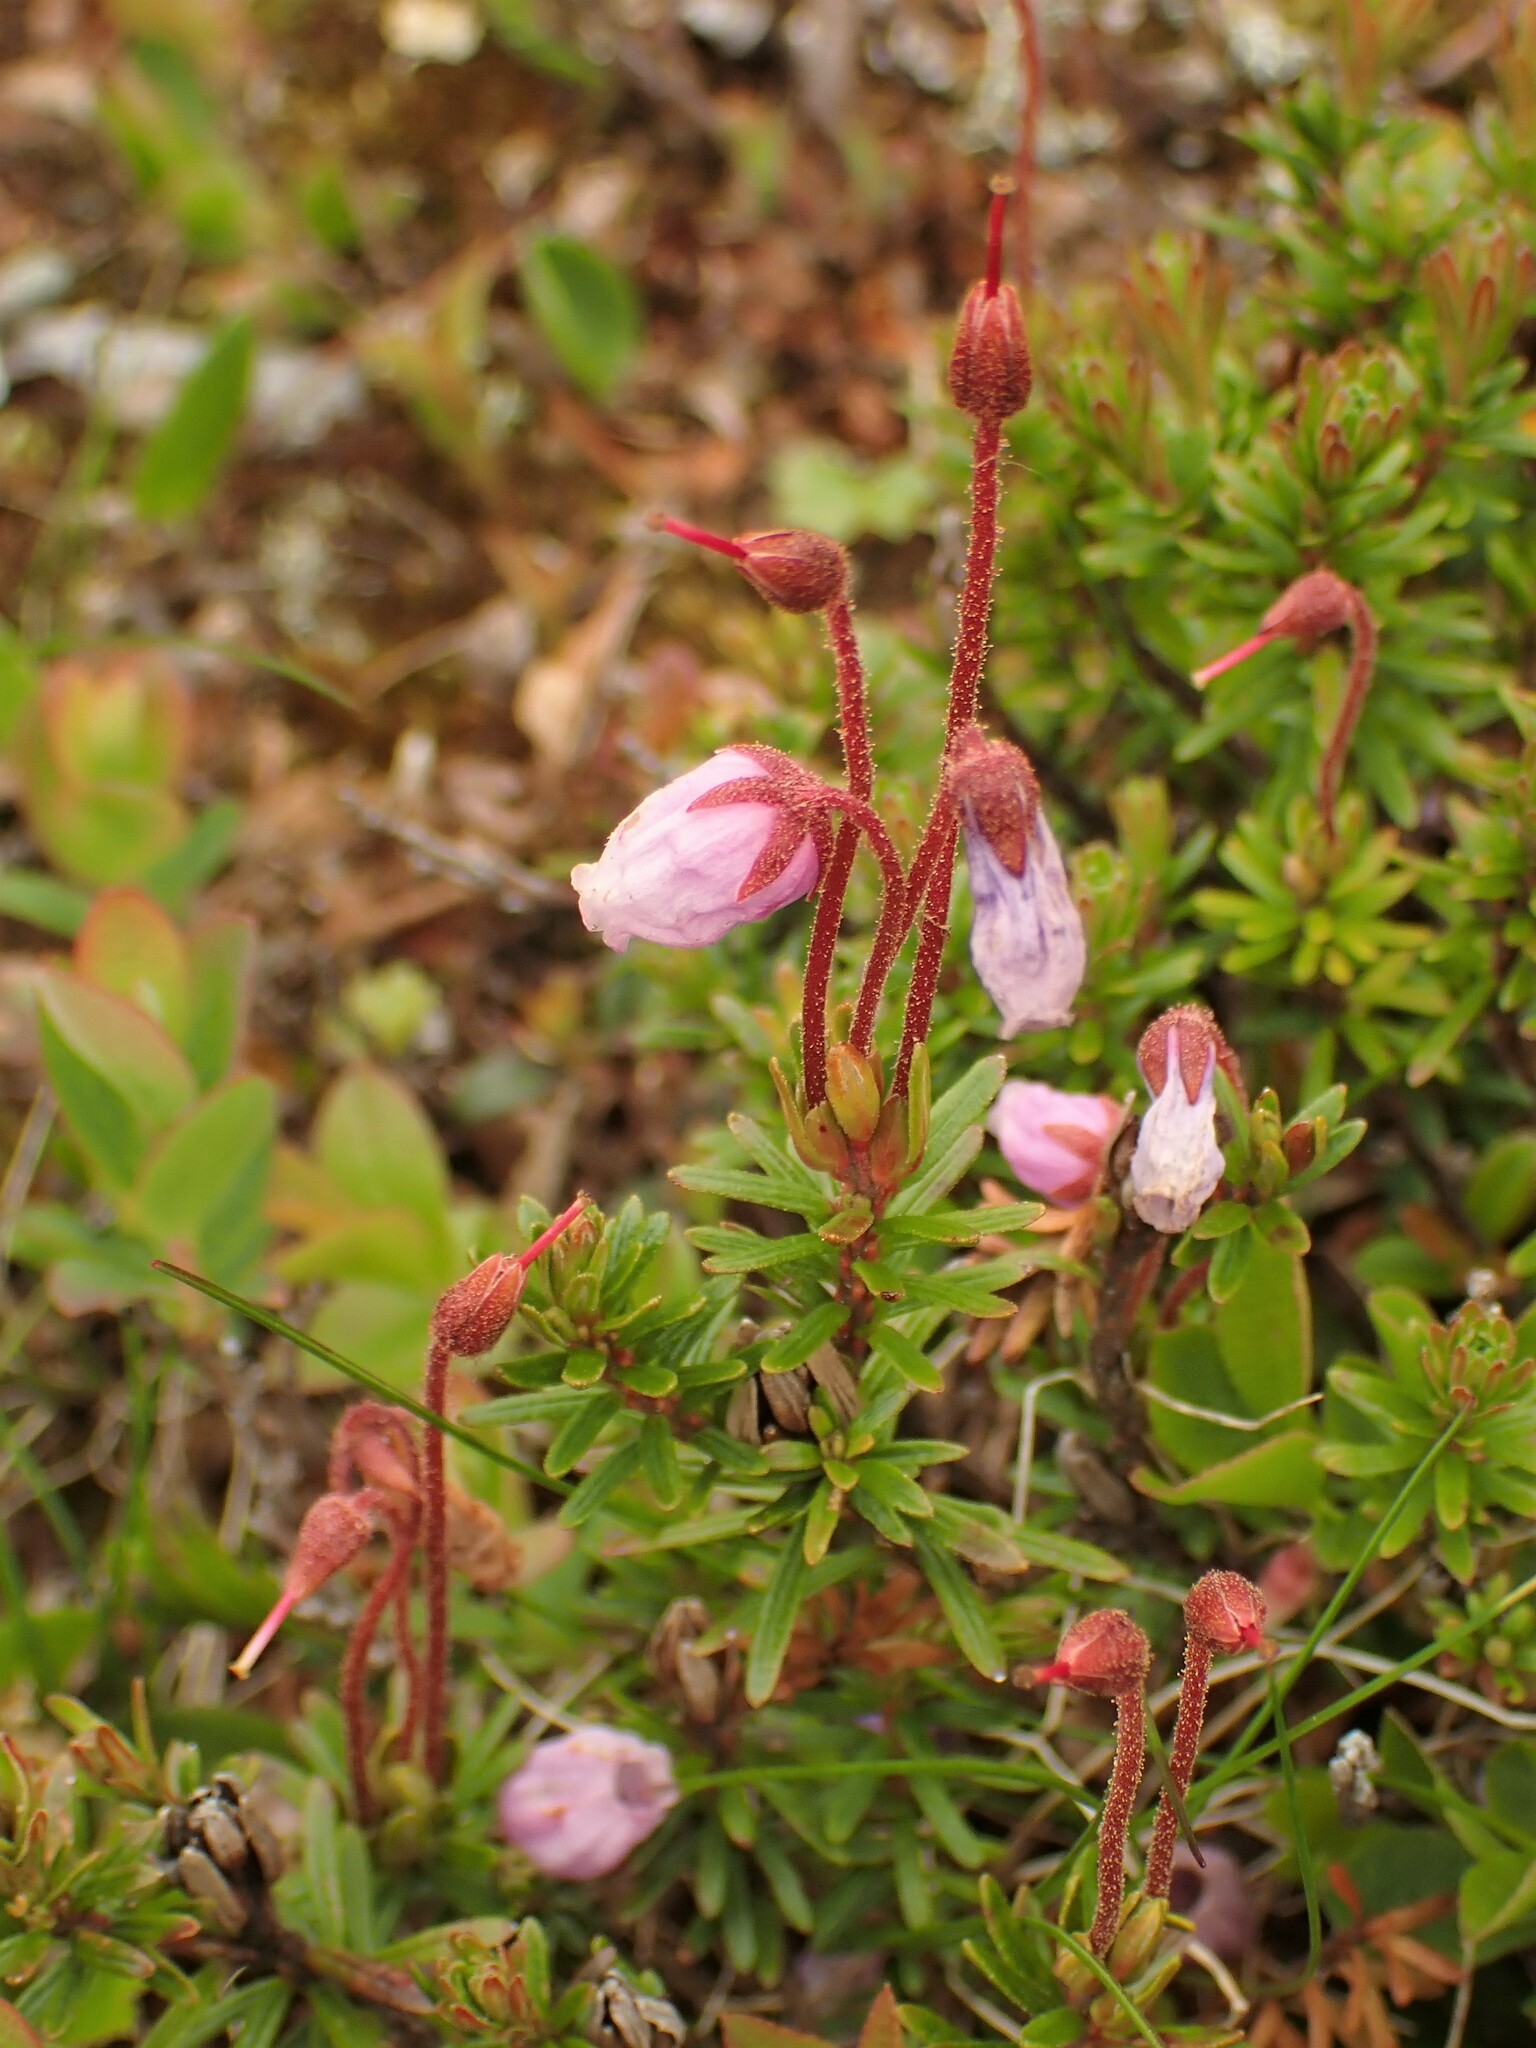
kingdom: Plantae
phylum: Tracheophyta
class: Magnoliopsida
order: Ericales
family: Ericaceae
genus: Phyllodoce
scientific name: Phyllodoce caerulea
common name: Blue heath
